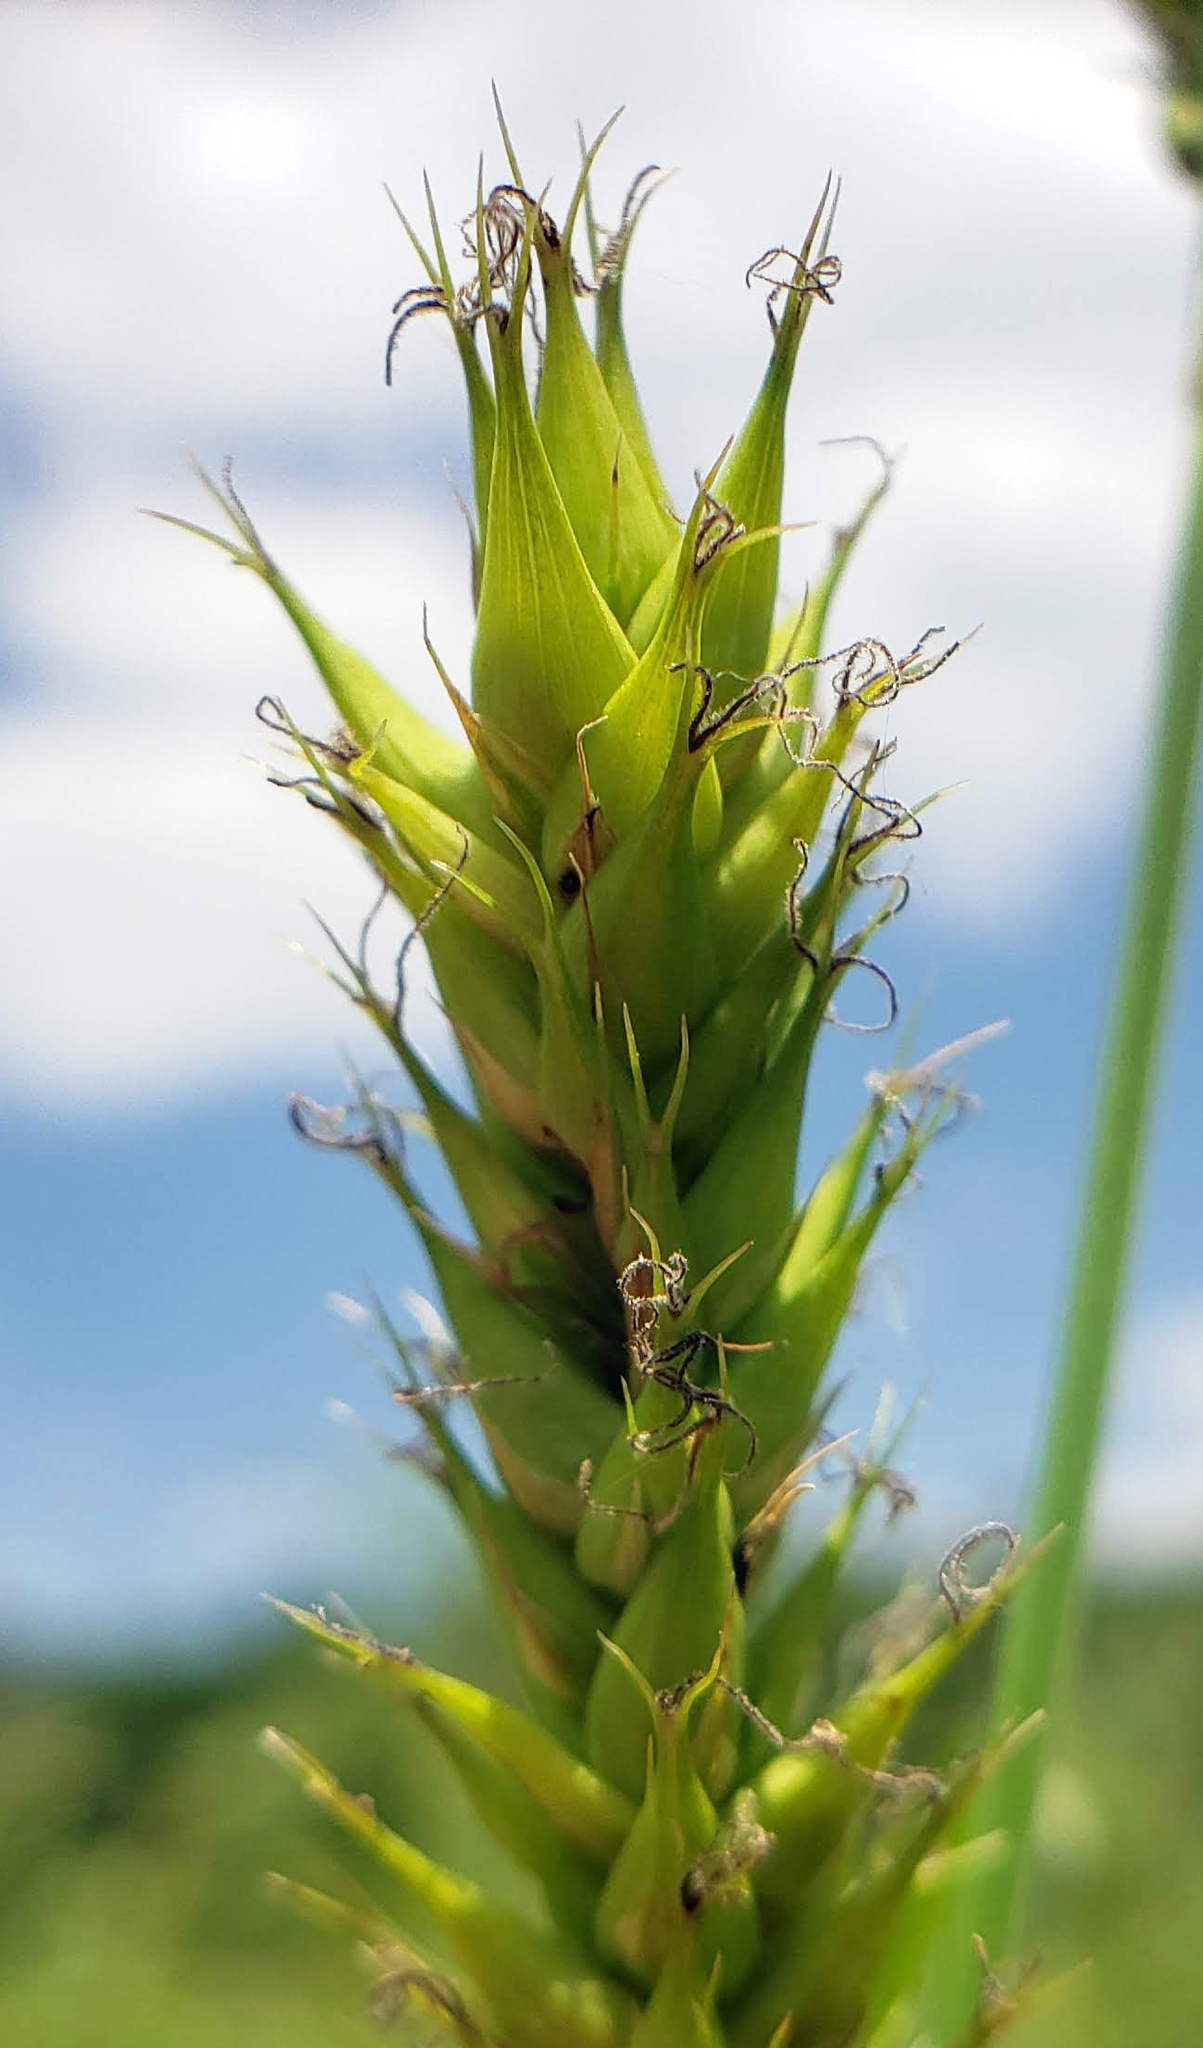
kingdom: Plantae
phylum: Tracheophyta
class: Liliopsida
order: Poales
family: Cyperaceae
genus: Carex
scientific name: Carex atherodes
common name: Wheat sedge
